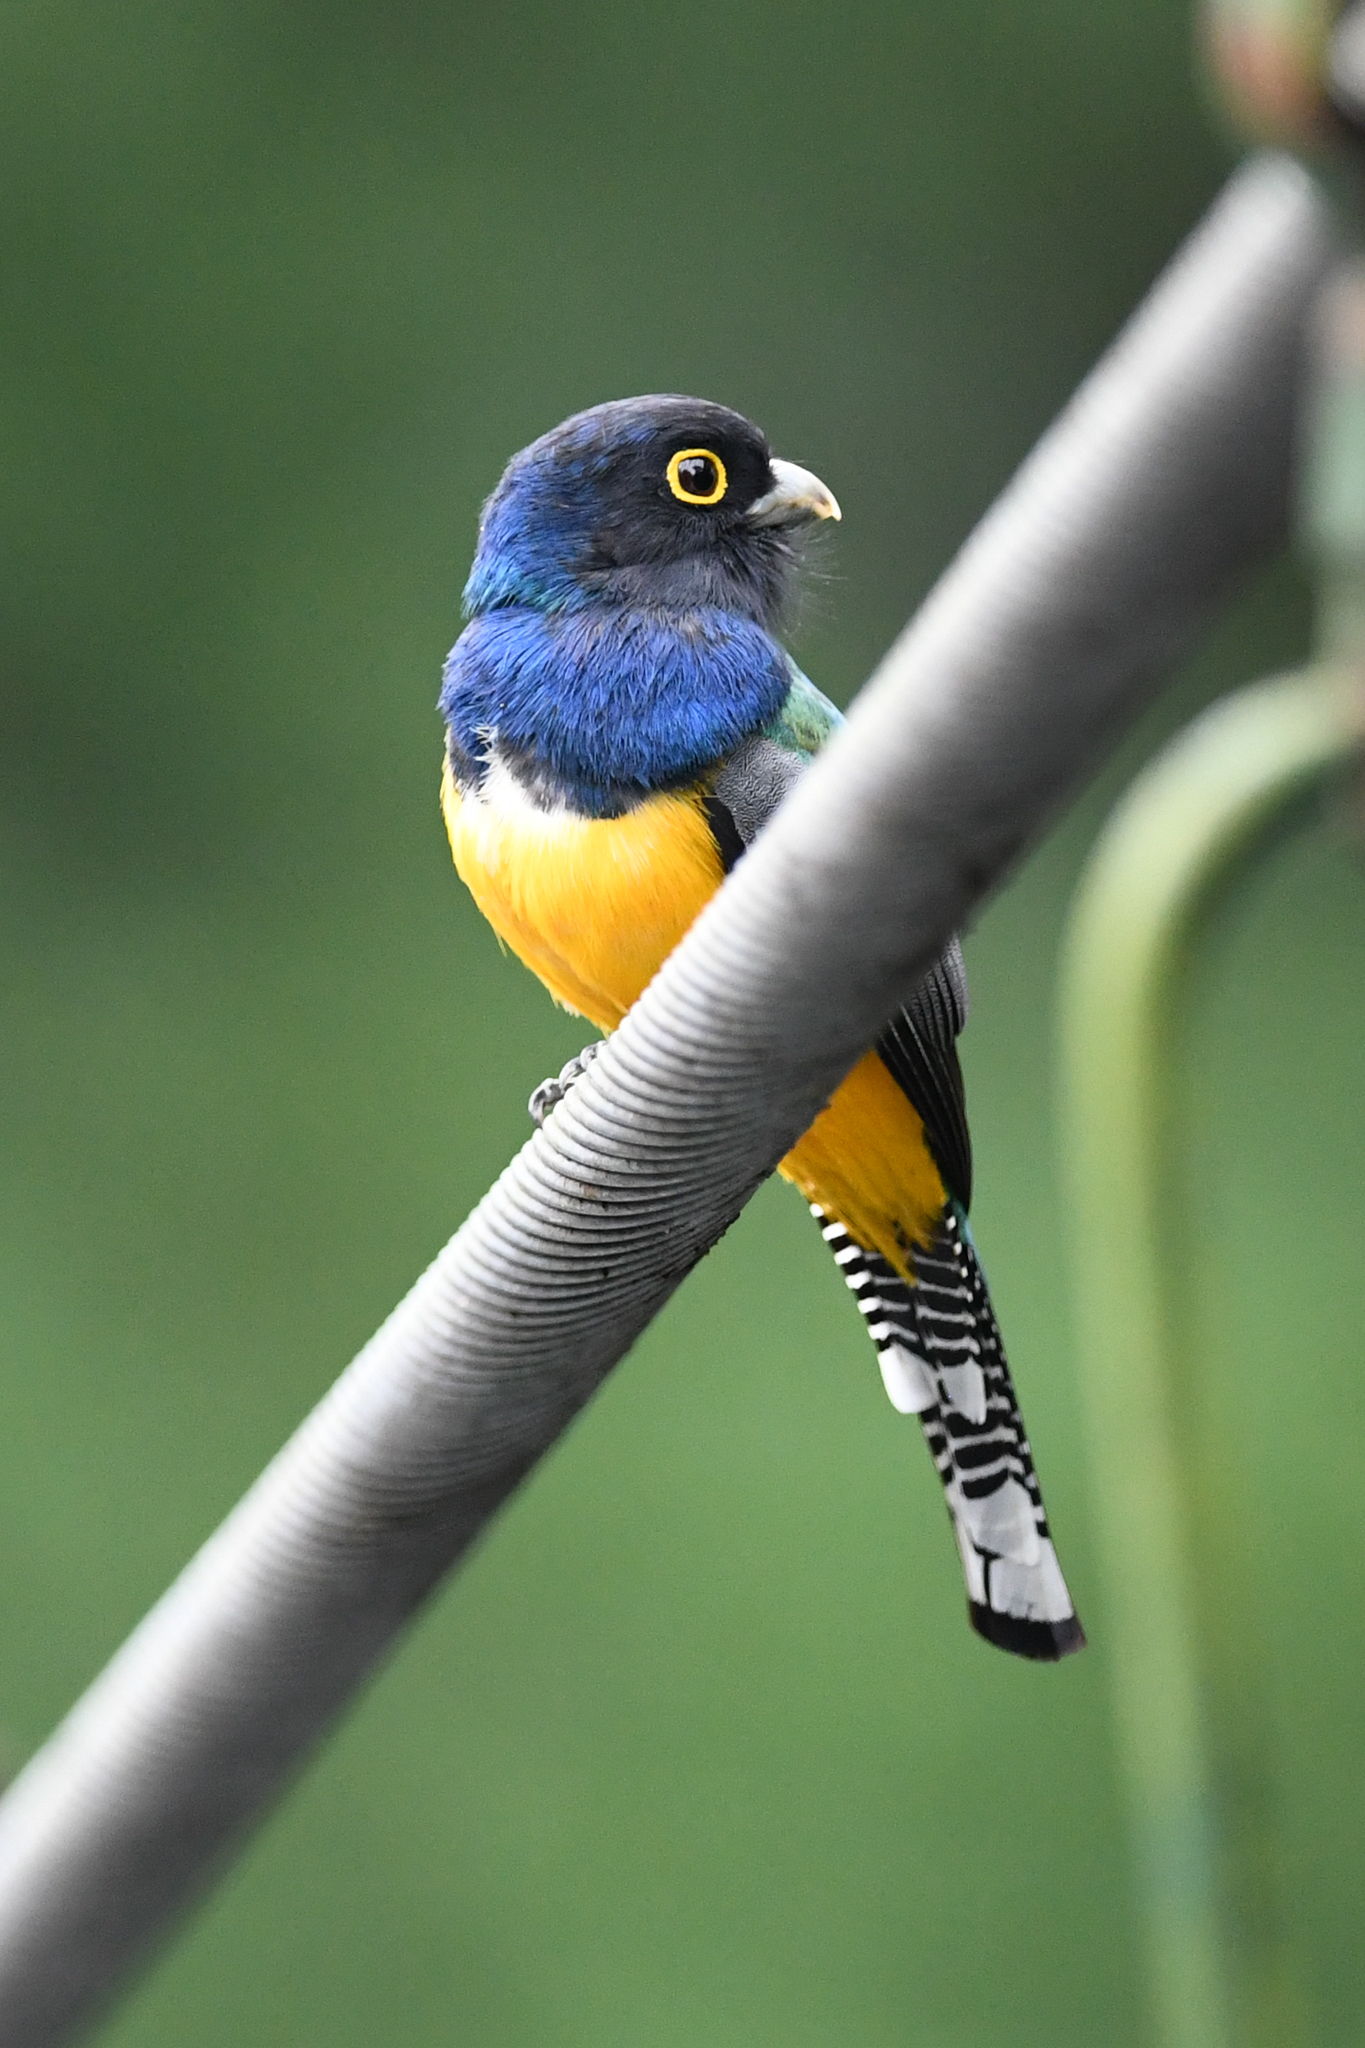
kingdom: Animalia
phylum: Chordata
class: Aves
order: Trogoniformes
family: Trogonidae
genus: Trogon
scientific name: Trogon caligatus
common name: Gartered trogon
